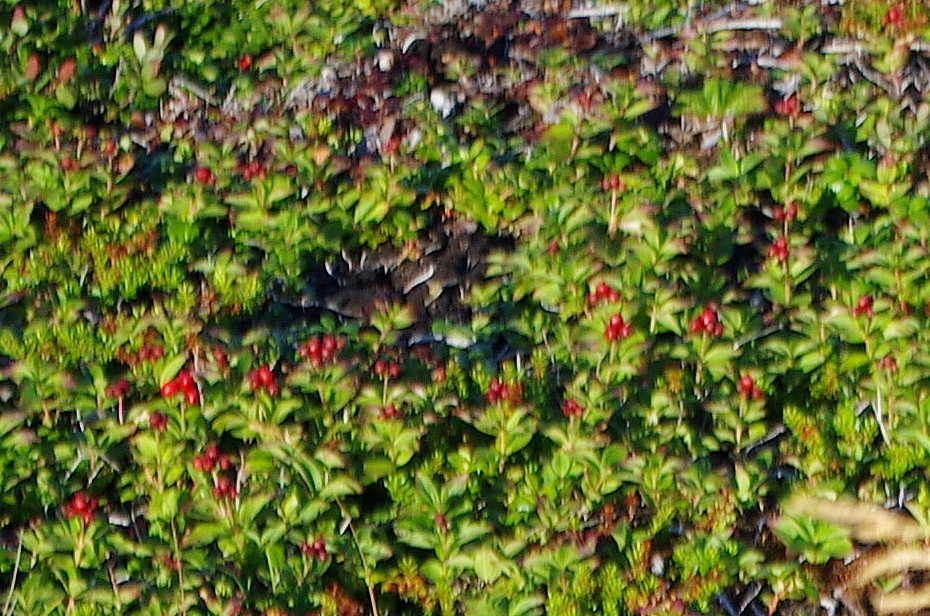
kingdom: Plantae
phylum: Tracheophyta
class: Magnoliopsida
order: Cornales
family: Cornaceae
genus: Cornus
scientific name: Cornus suecica
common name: Dwarf cornel
